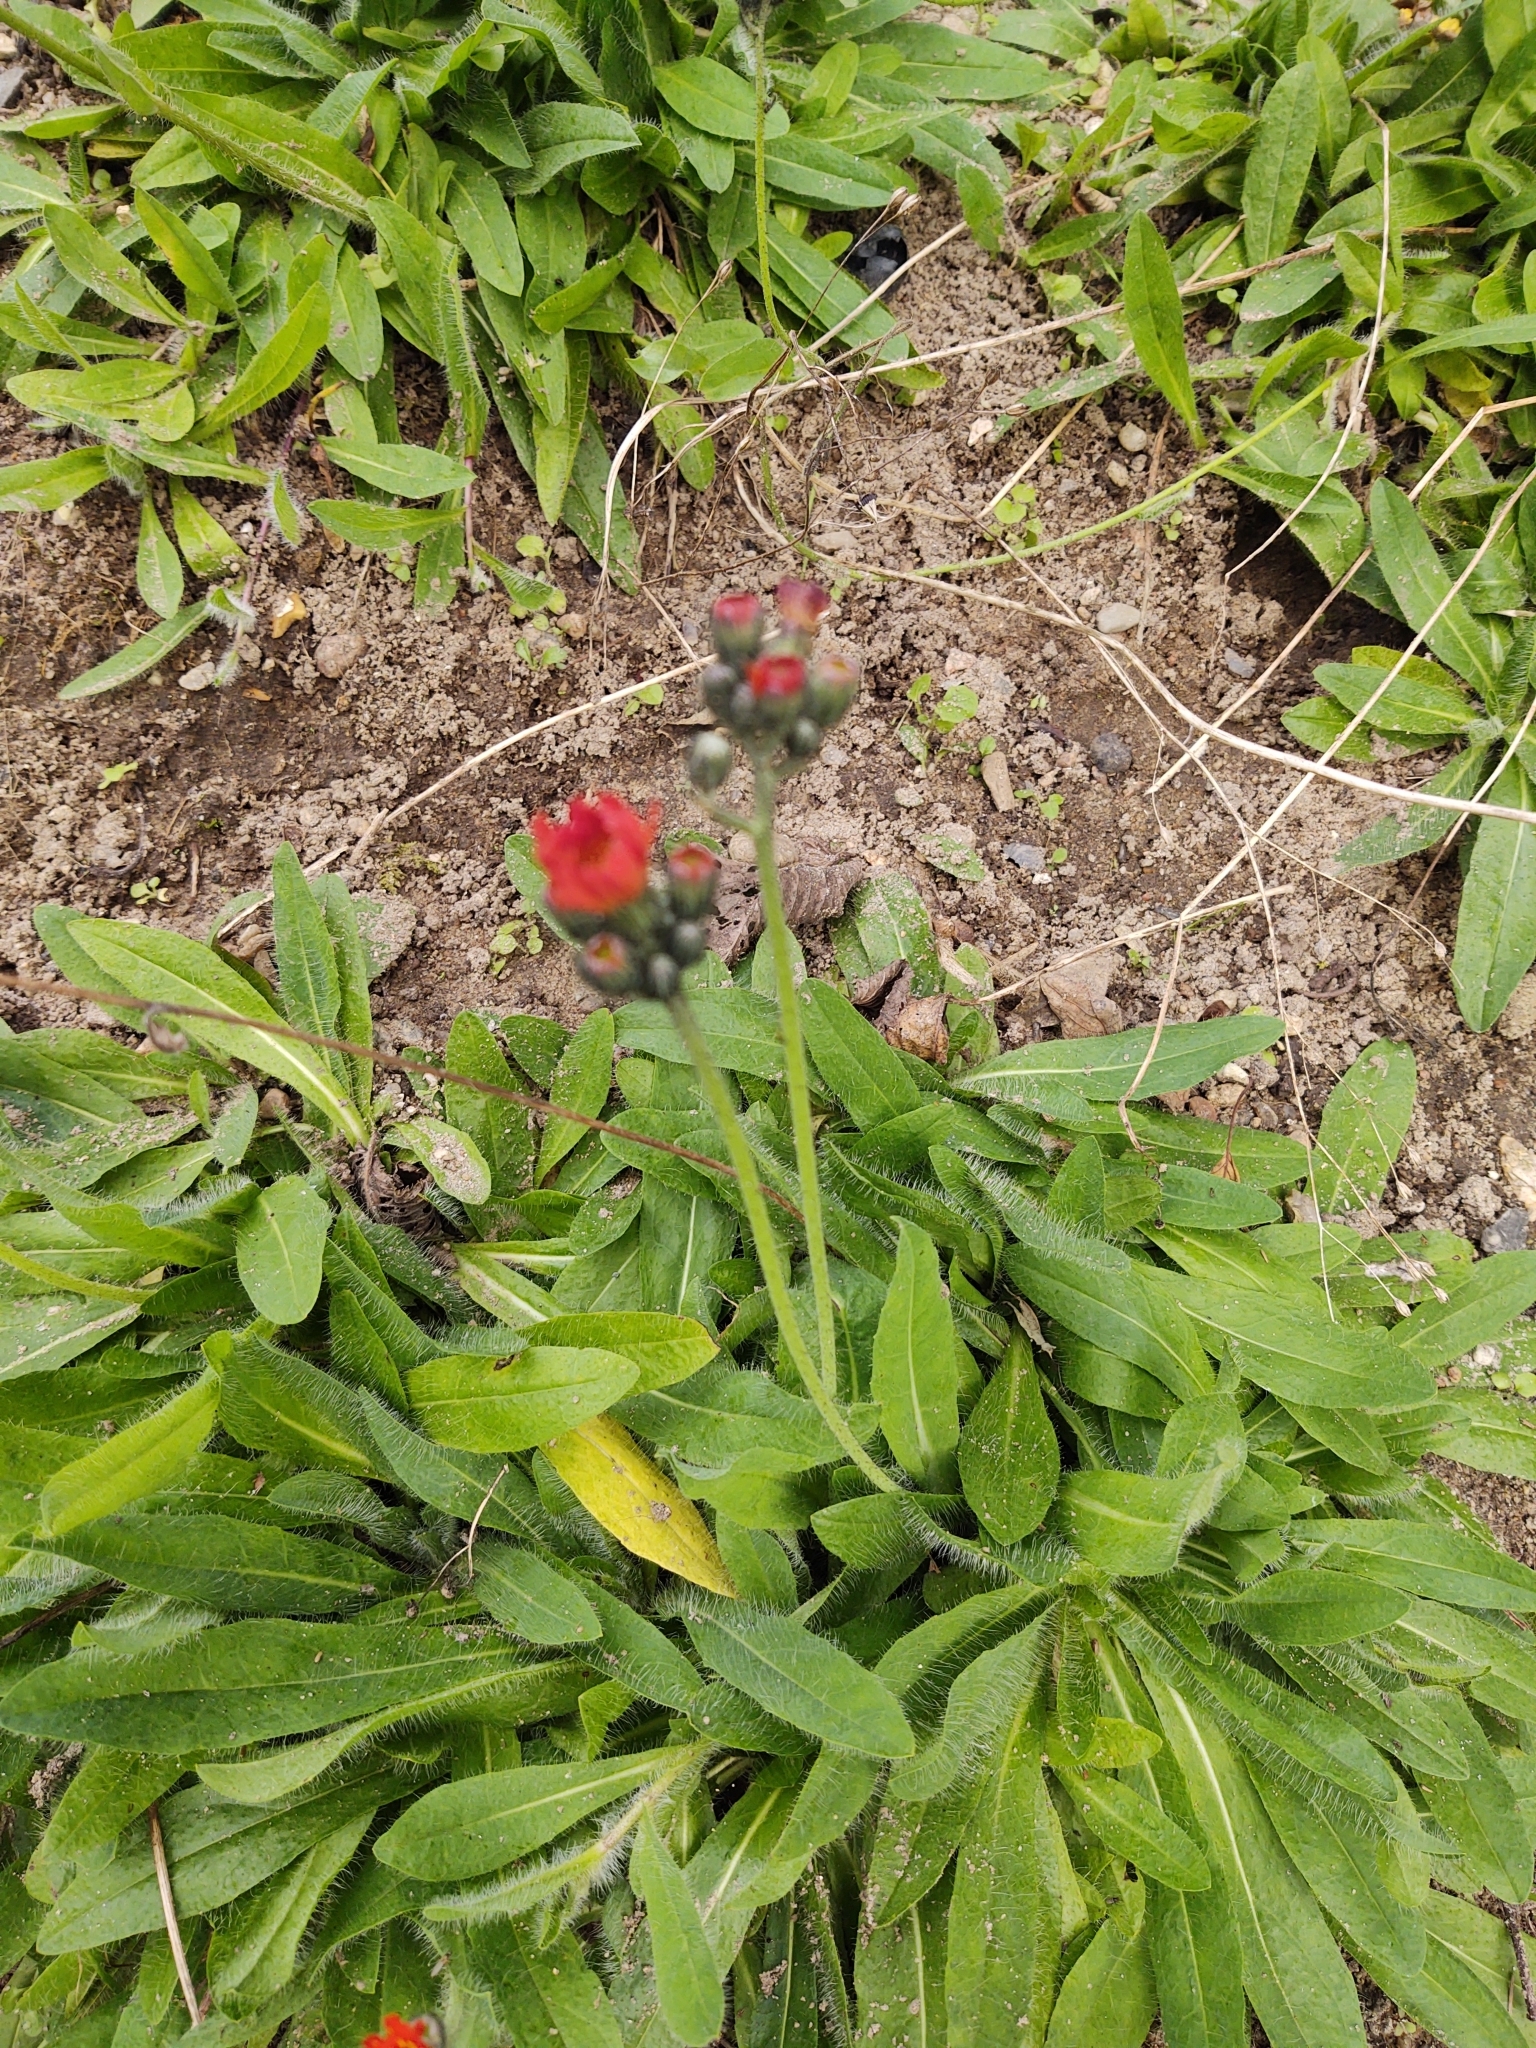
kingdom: Plantae
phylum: Tracheophyta
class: Magnoliopsida
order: Asterales
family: Asteraceae
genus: Pilosella
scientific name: Pilosella aurantiaca
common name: Fox-and-cubs
